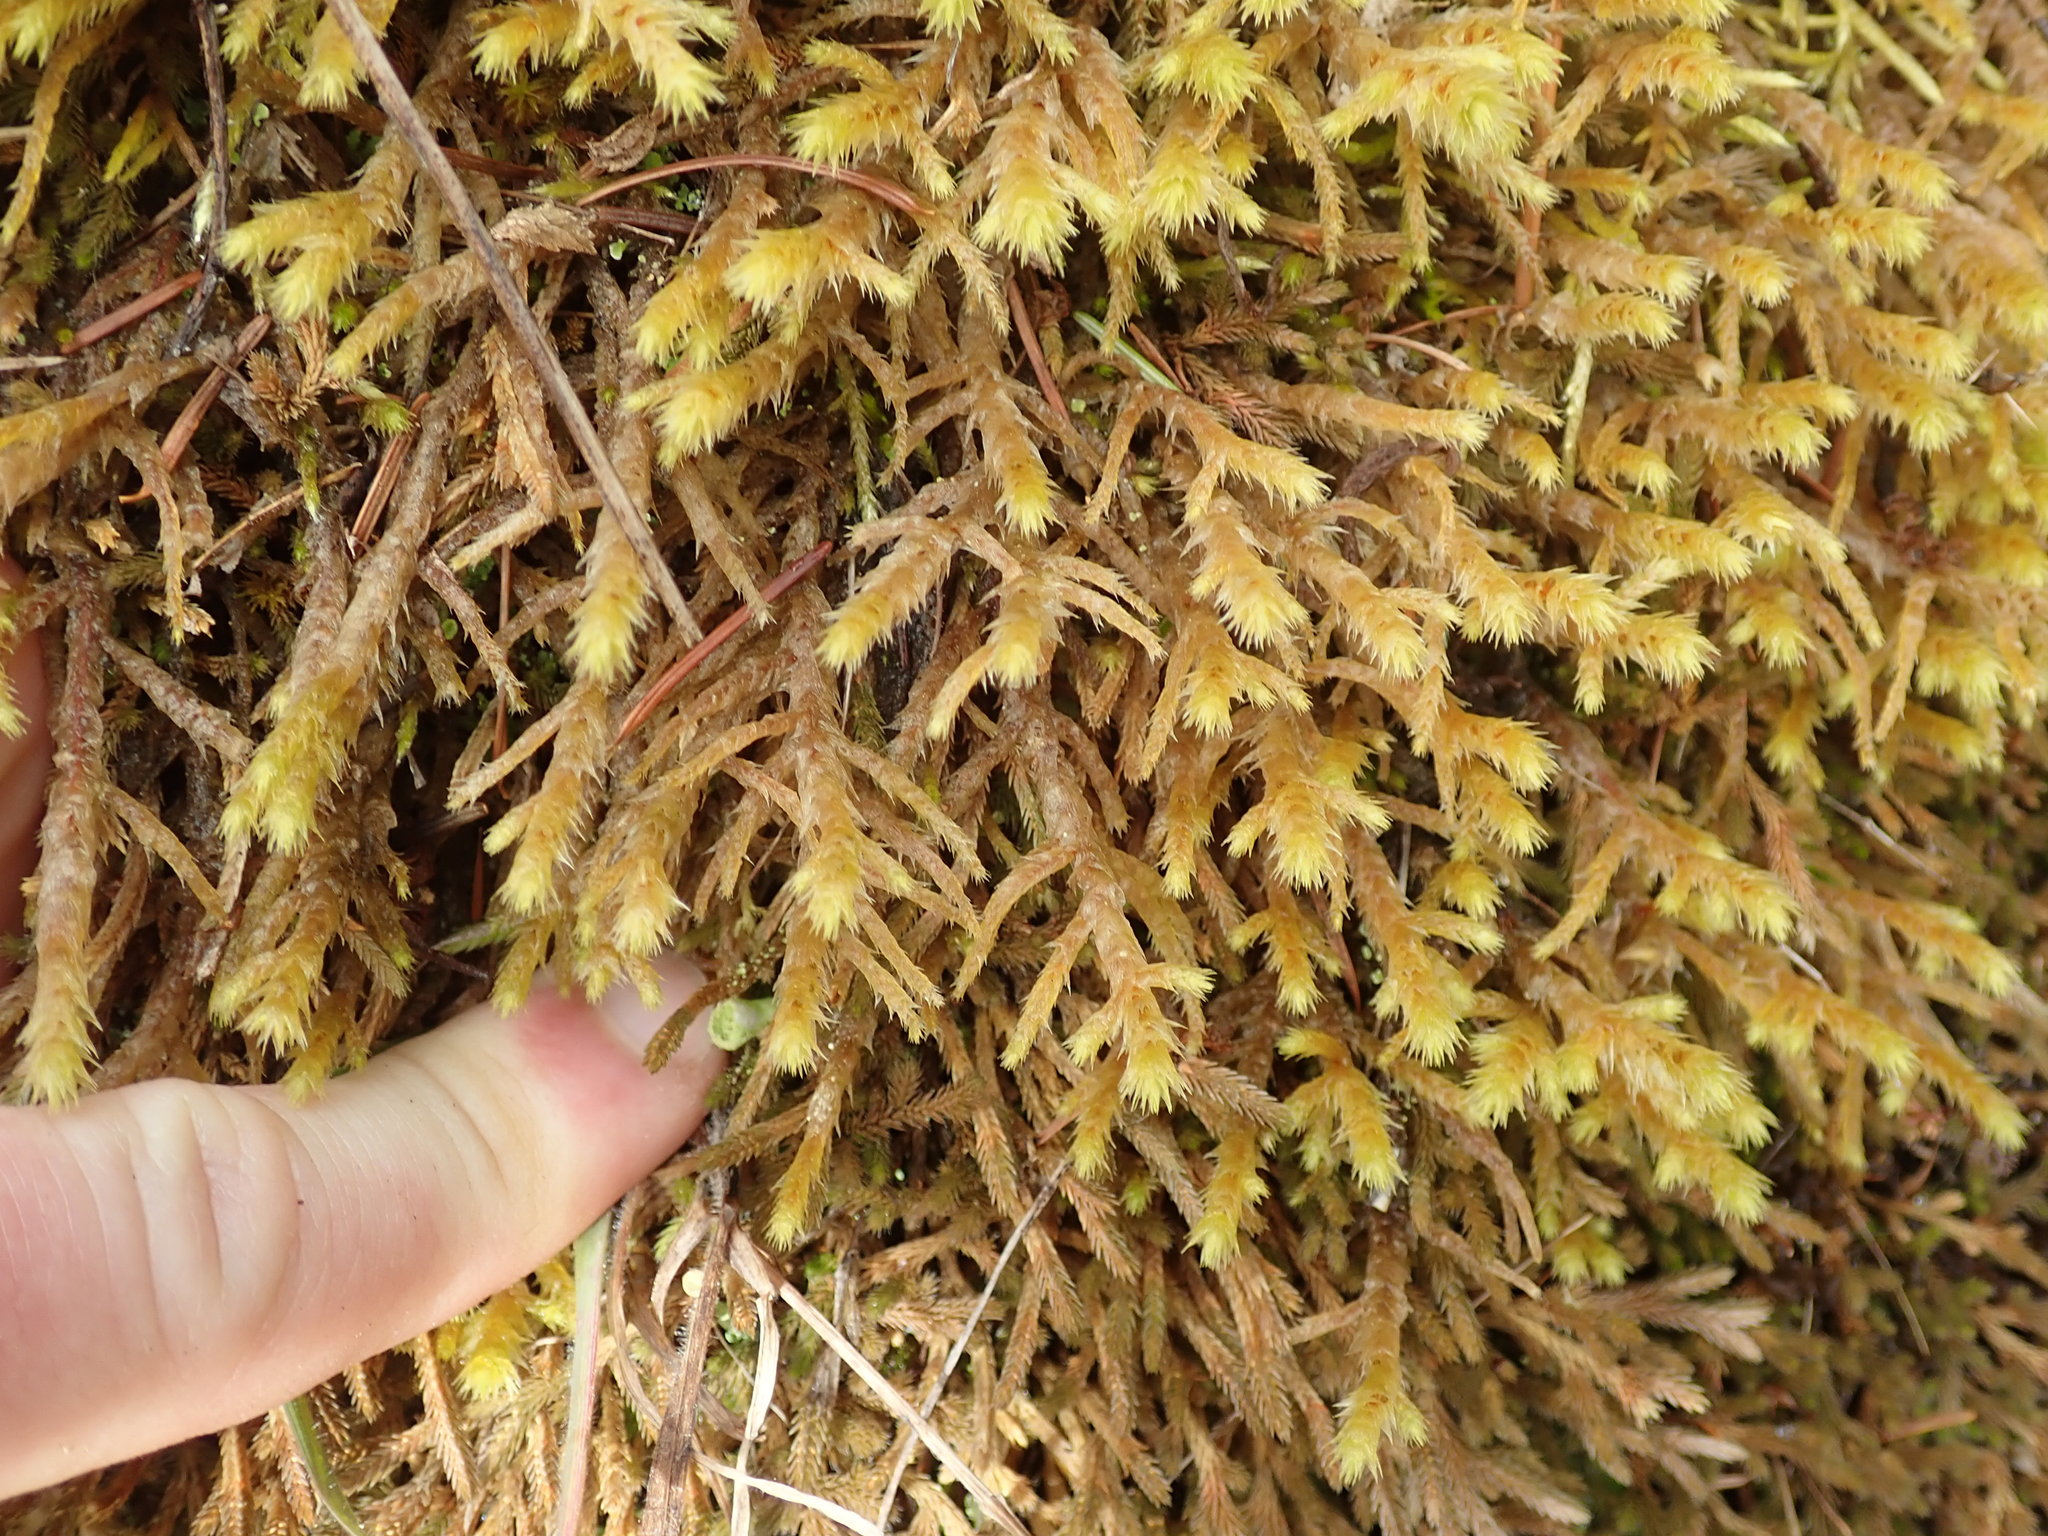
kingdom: Plantae
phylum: Bryophyta
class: Bryopsida
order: Hypnales
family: Antitrichiaceae
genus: Antitrichia
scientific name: Antitrichia curtipendula
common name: Pendulous wing-moss
